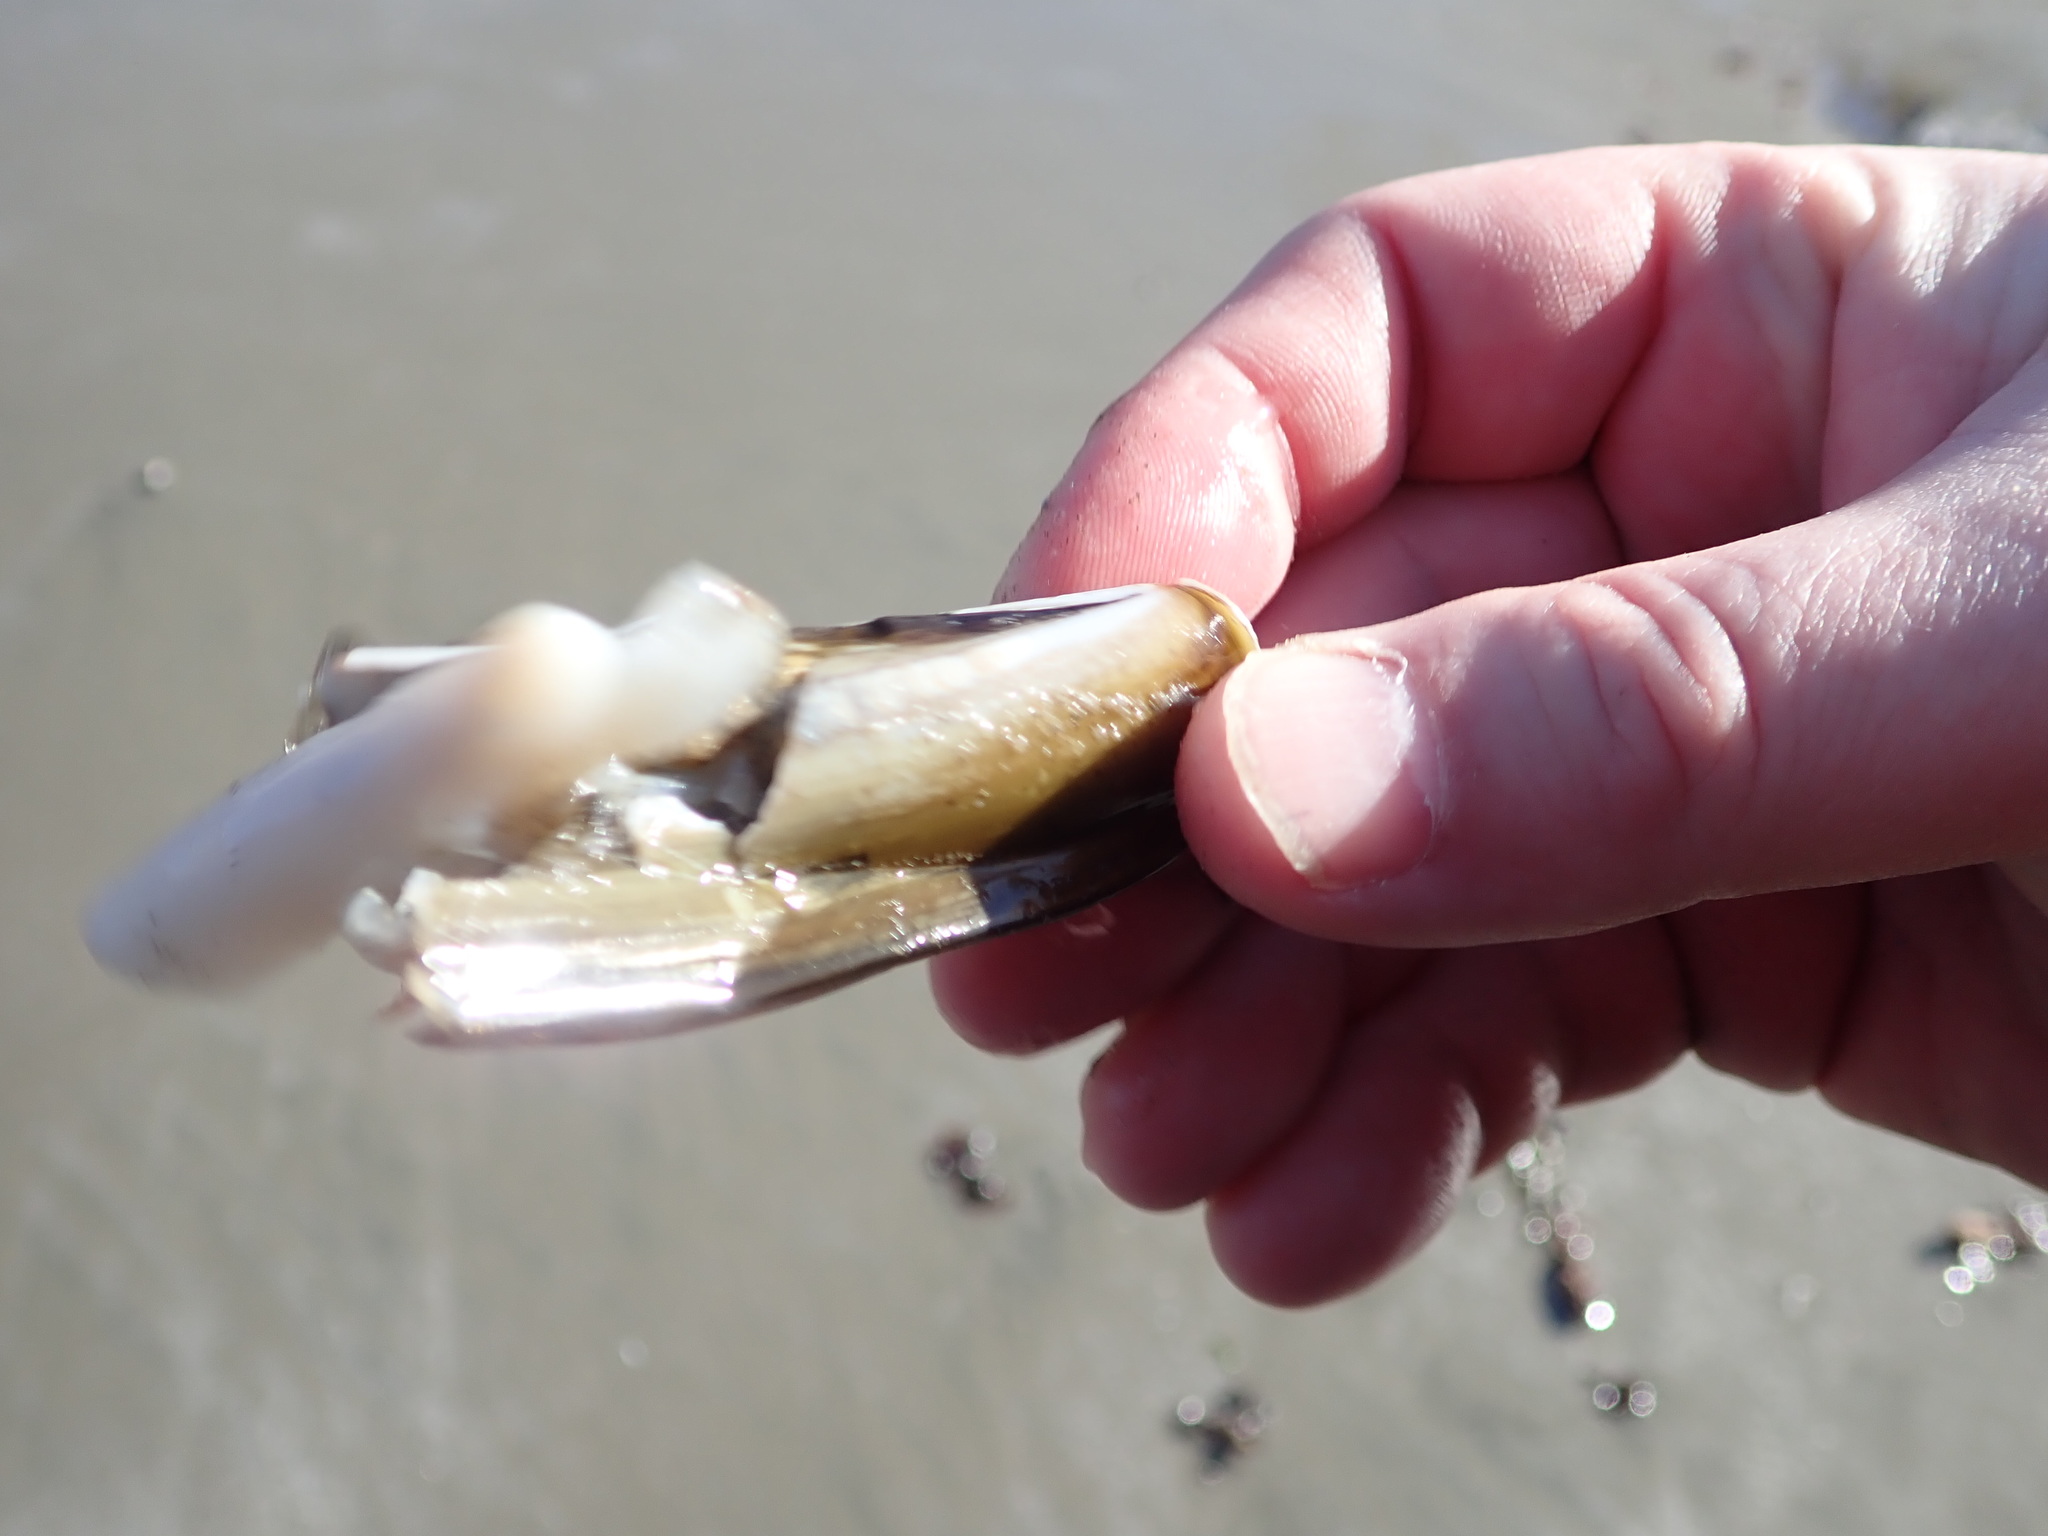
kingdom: Animalia
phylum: Mollusca
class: Bivalvia
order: Adapedonta
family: Pharidae
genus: Ensis
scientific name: Ensis leei
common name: American jack knife clam
